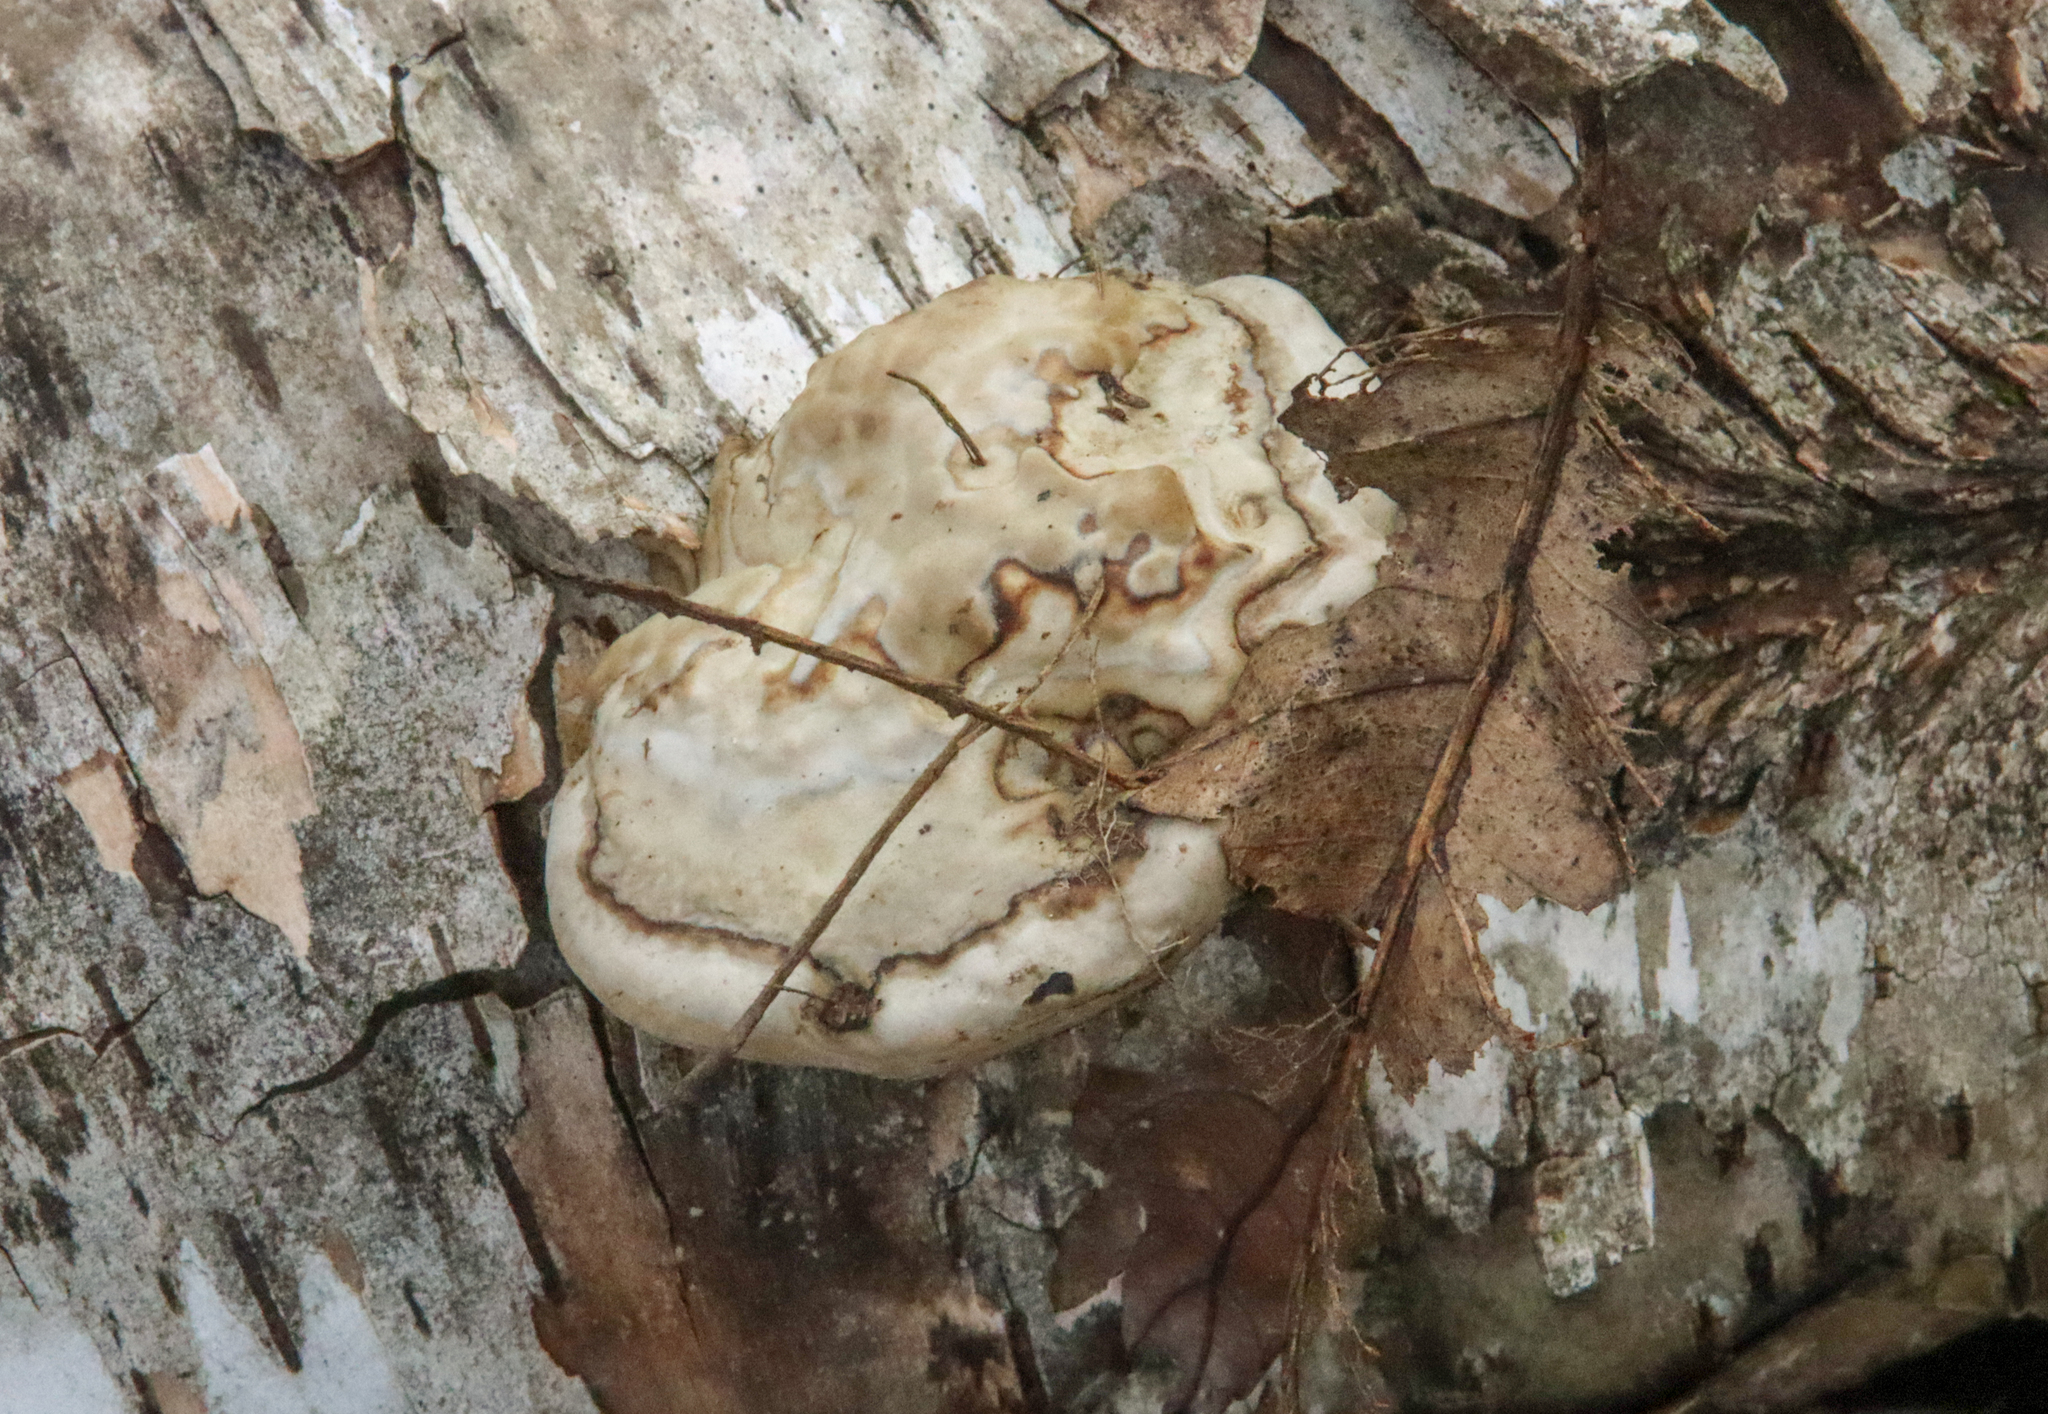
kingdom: Fungi
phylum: Basidiomycota
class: Agaricomycetes
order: Polyporales
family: Polyporaceae
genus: Fomes
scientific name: Fomes fomentarius
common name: Hoof fungus
